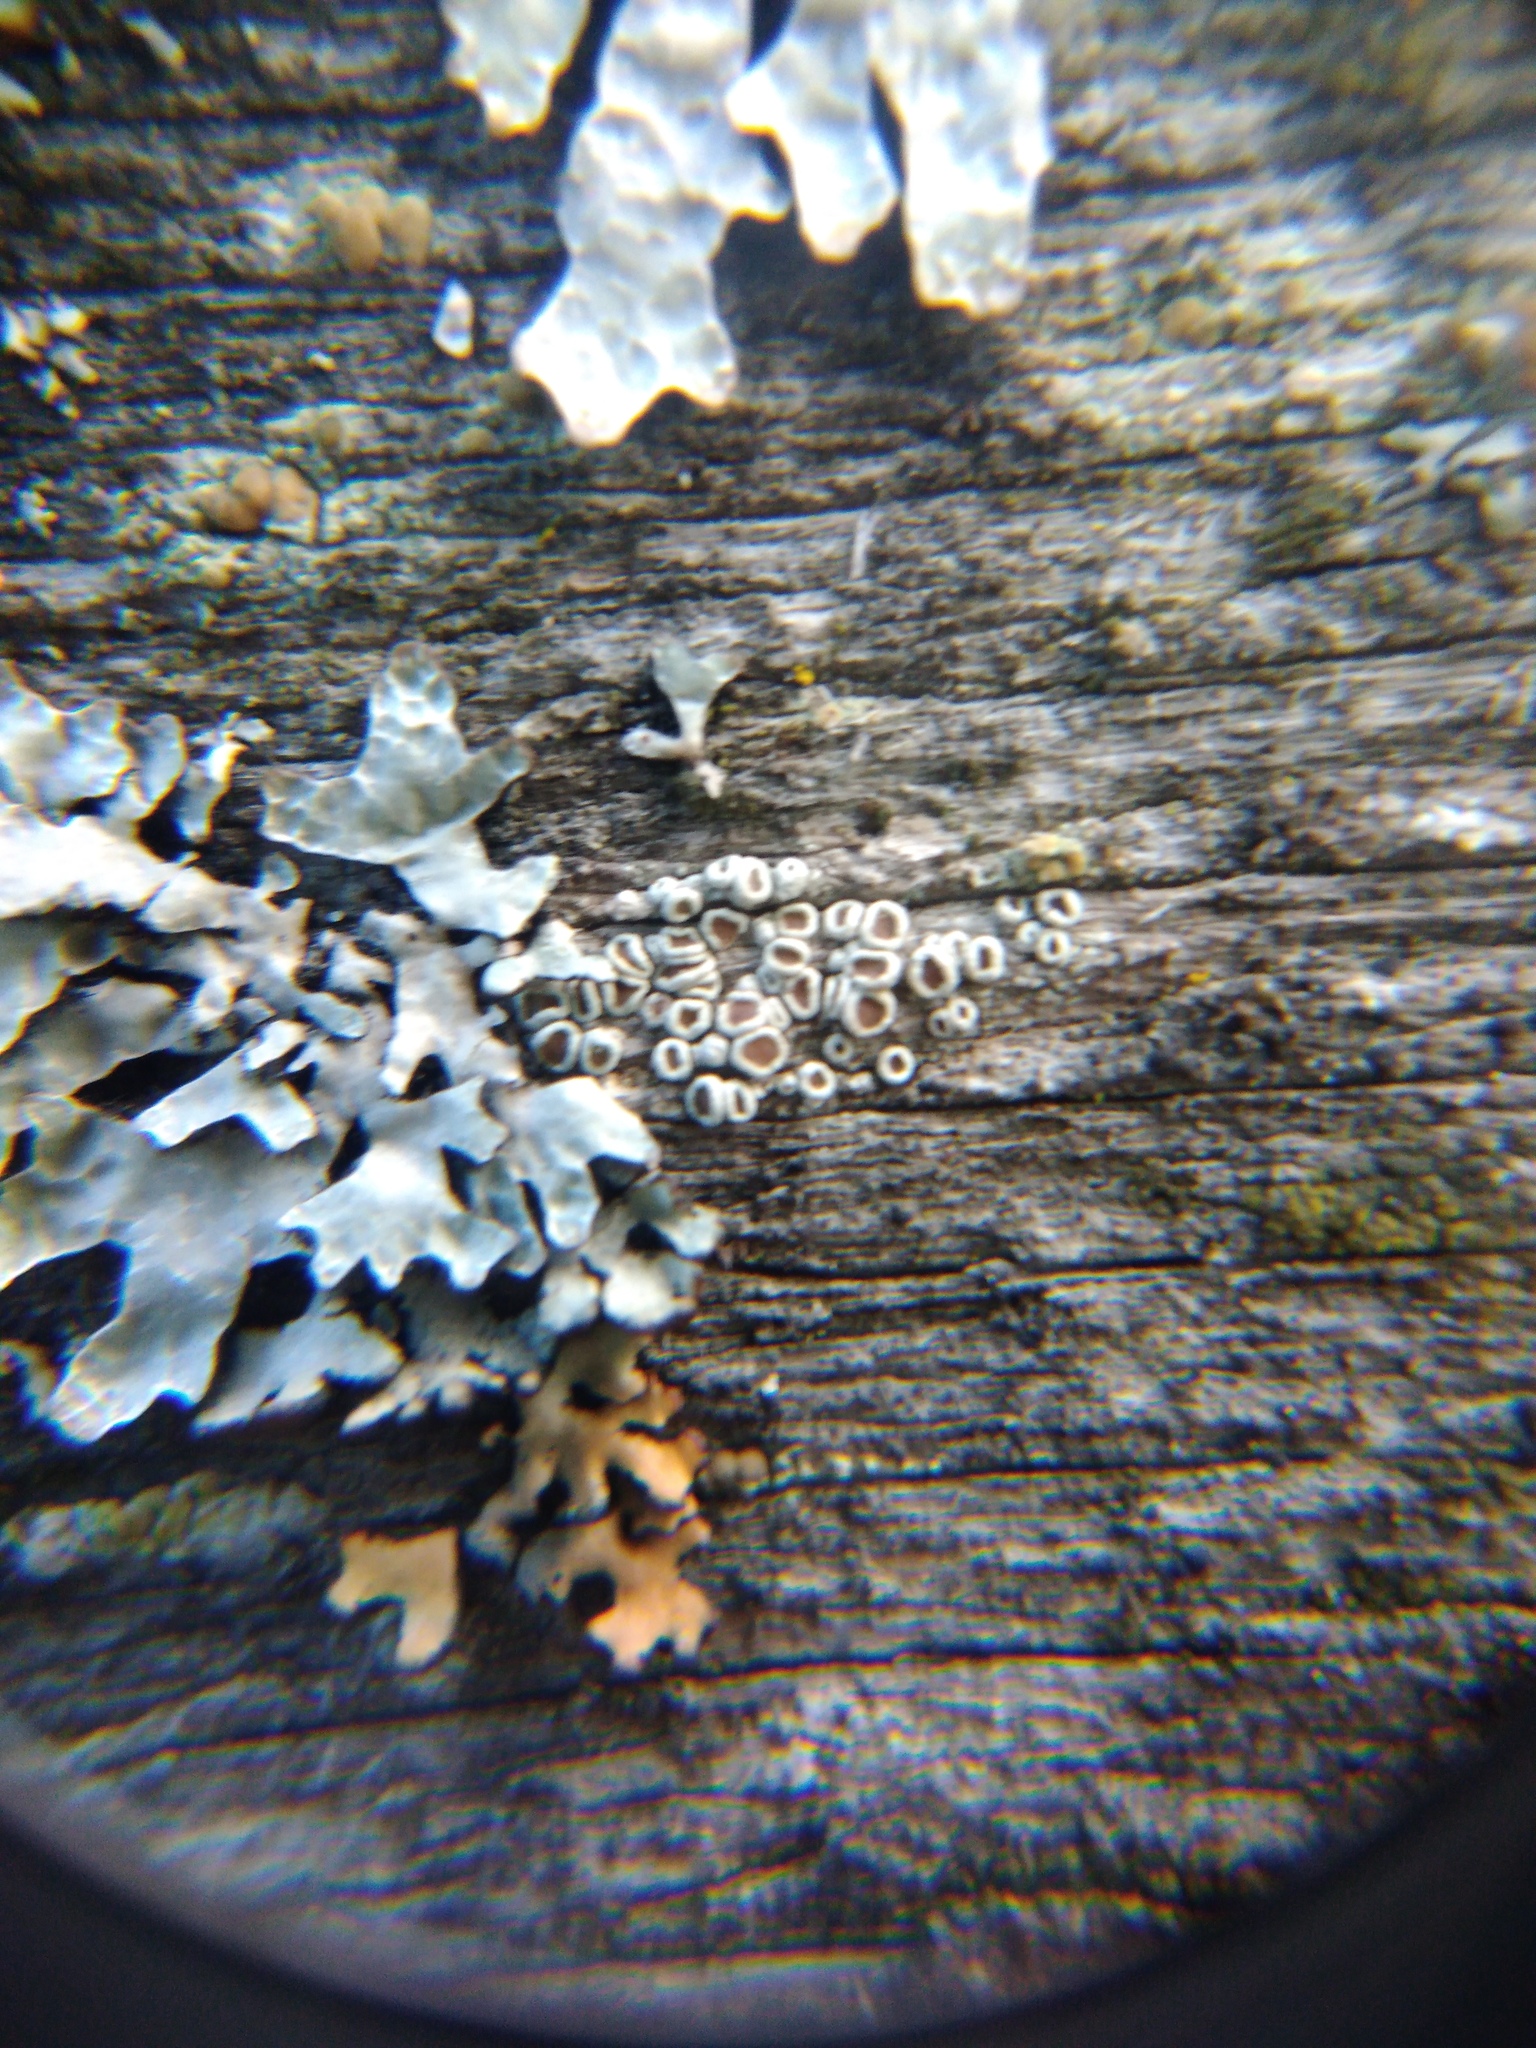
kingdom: Fungi
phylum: Ascomycota
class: Lecanoromycetes
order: Lecanorales
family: Lecanoraceae
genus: Lecanora
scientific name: Lecanora pulicaris
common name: Common rim lichen
